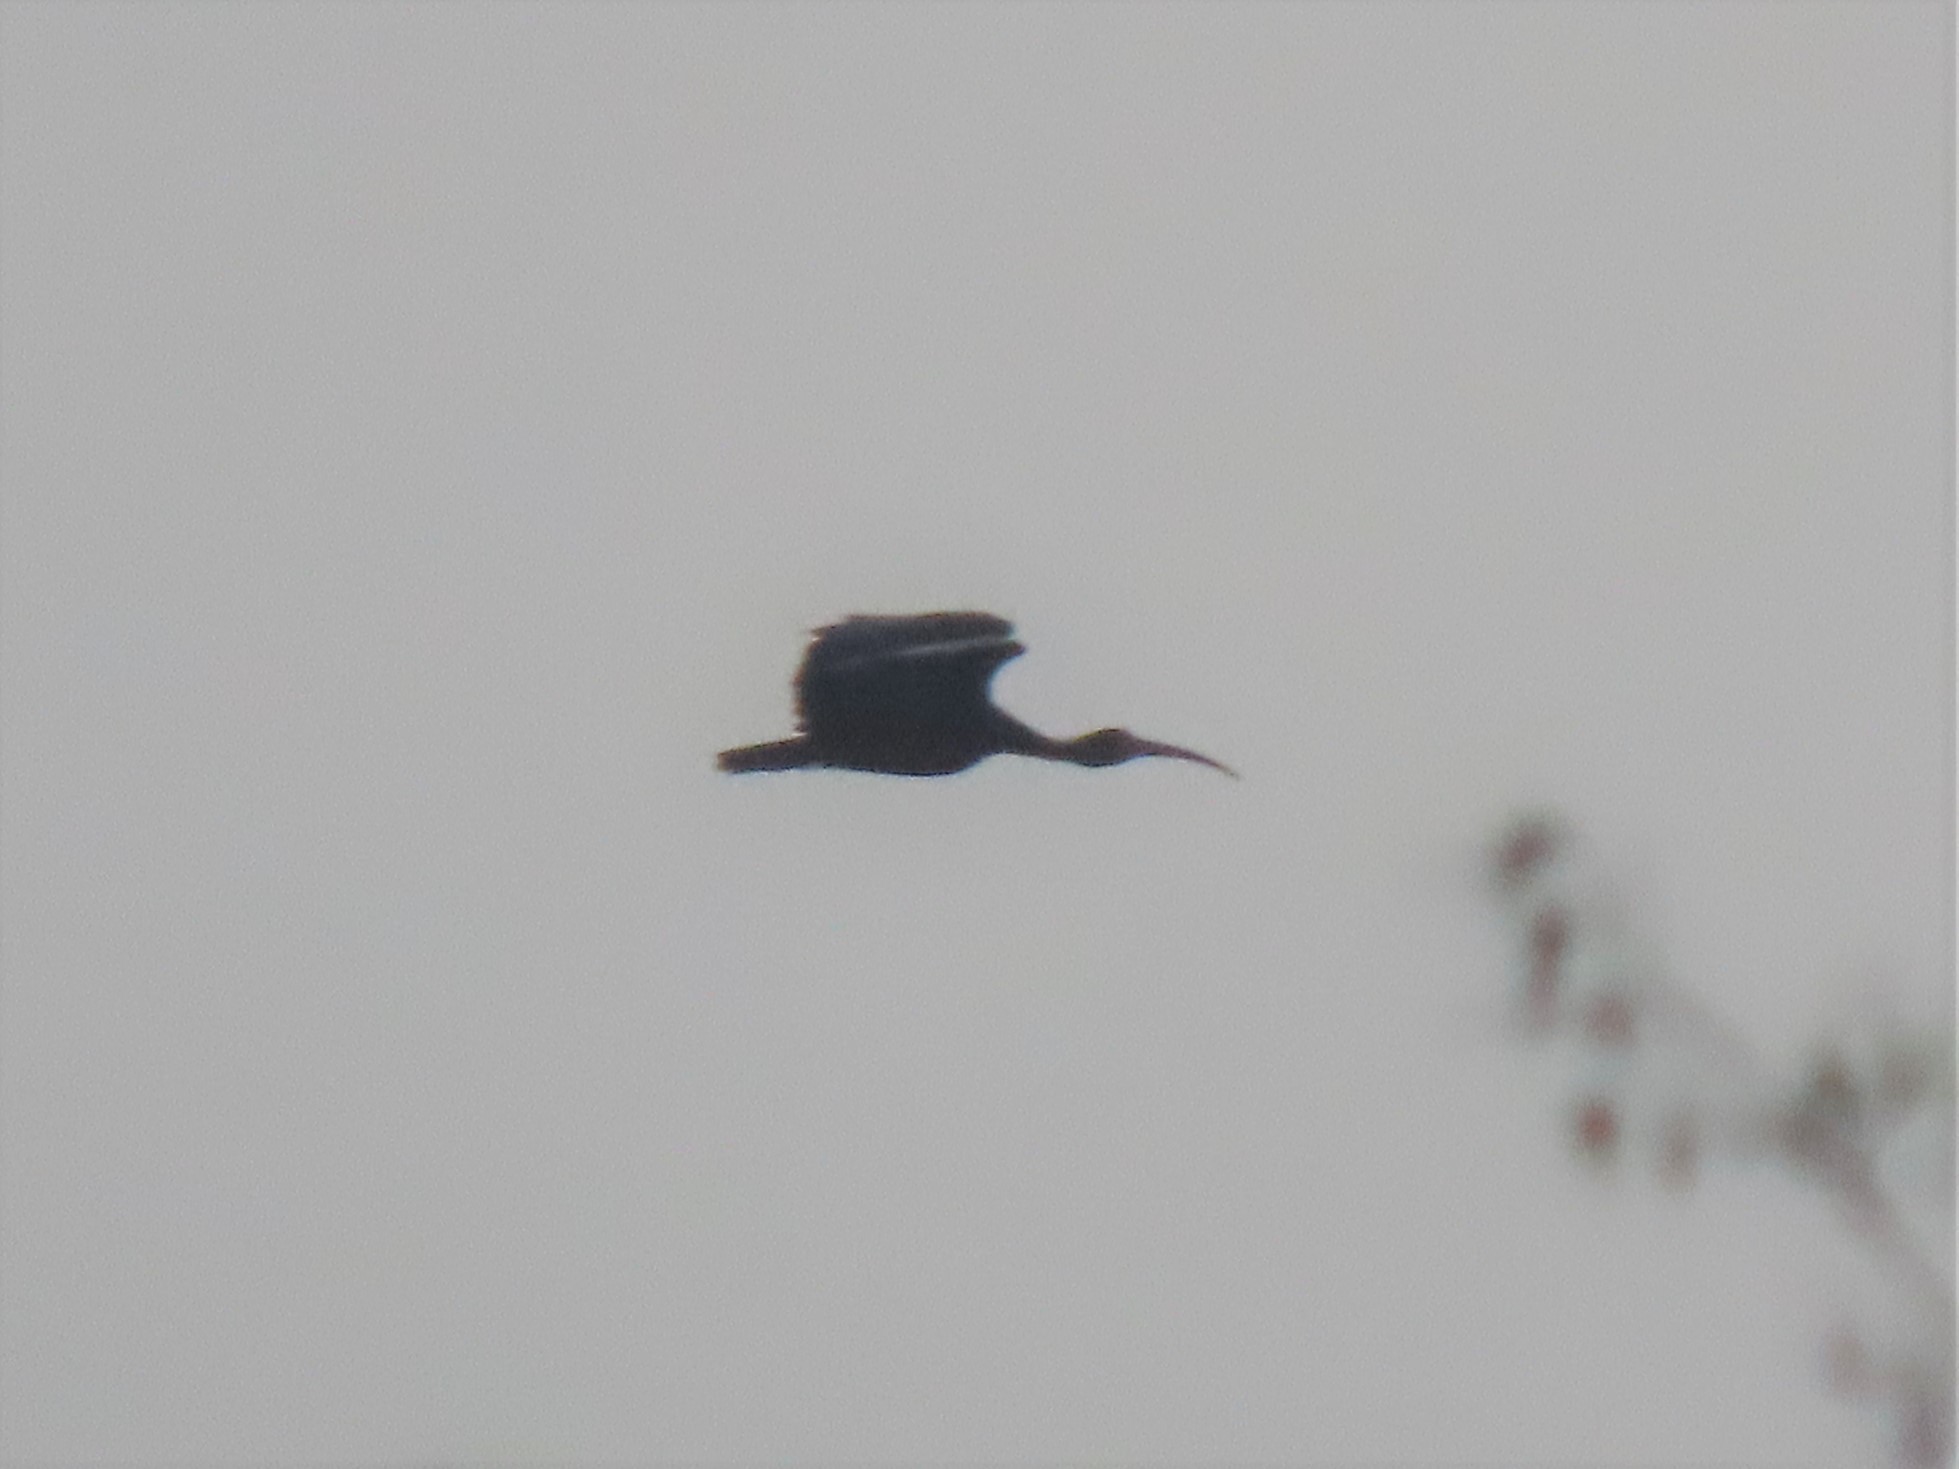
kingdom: Animalia
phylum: Chordata
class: Aves
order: Pelecaniformes
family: Threskiornithidae
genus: Phimosus
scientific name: Phimosus infuscatus
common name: Bare-faced ibis
